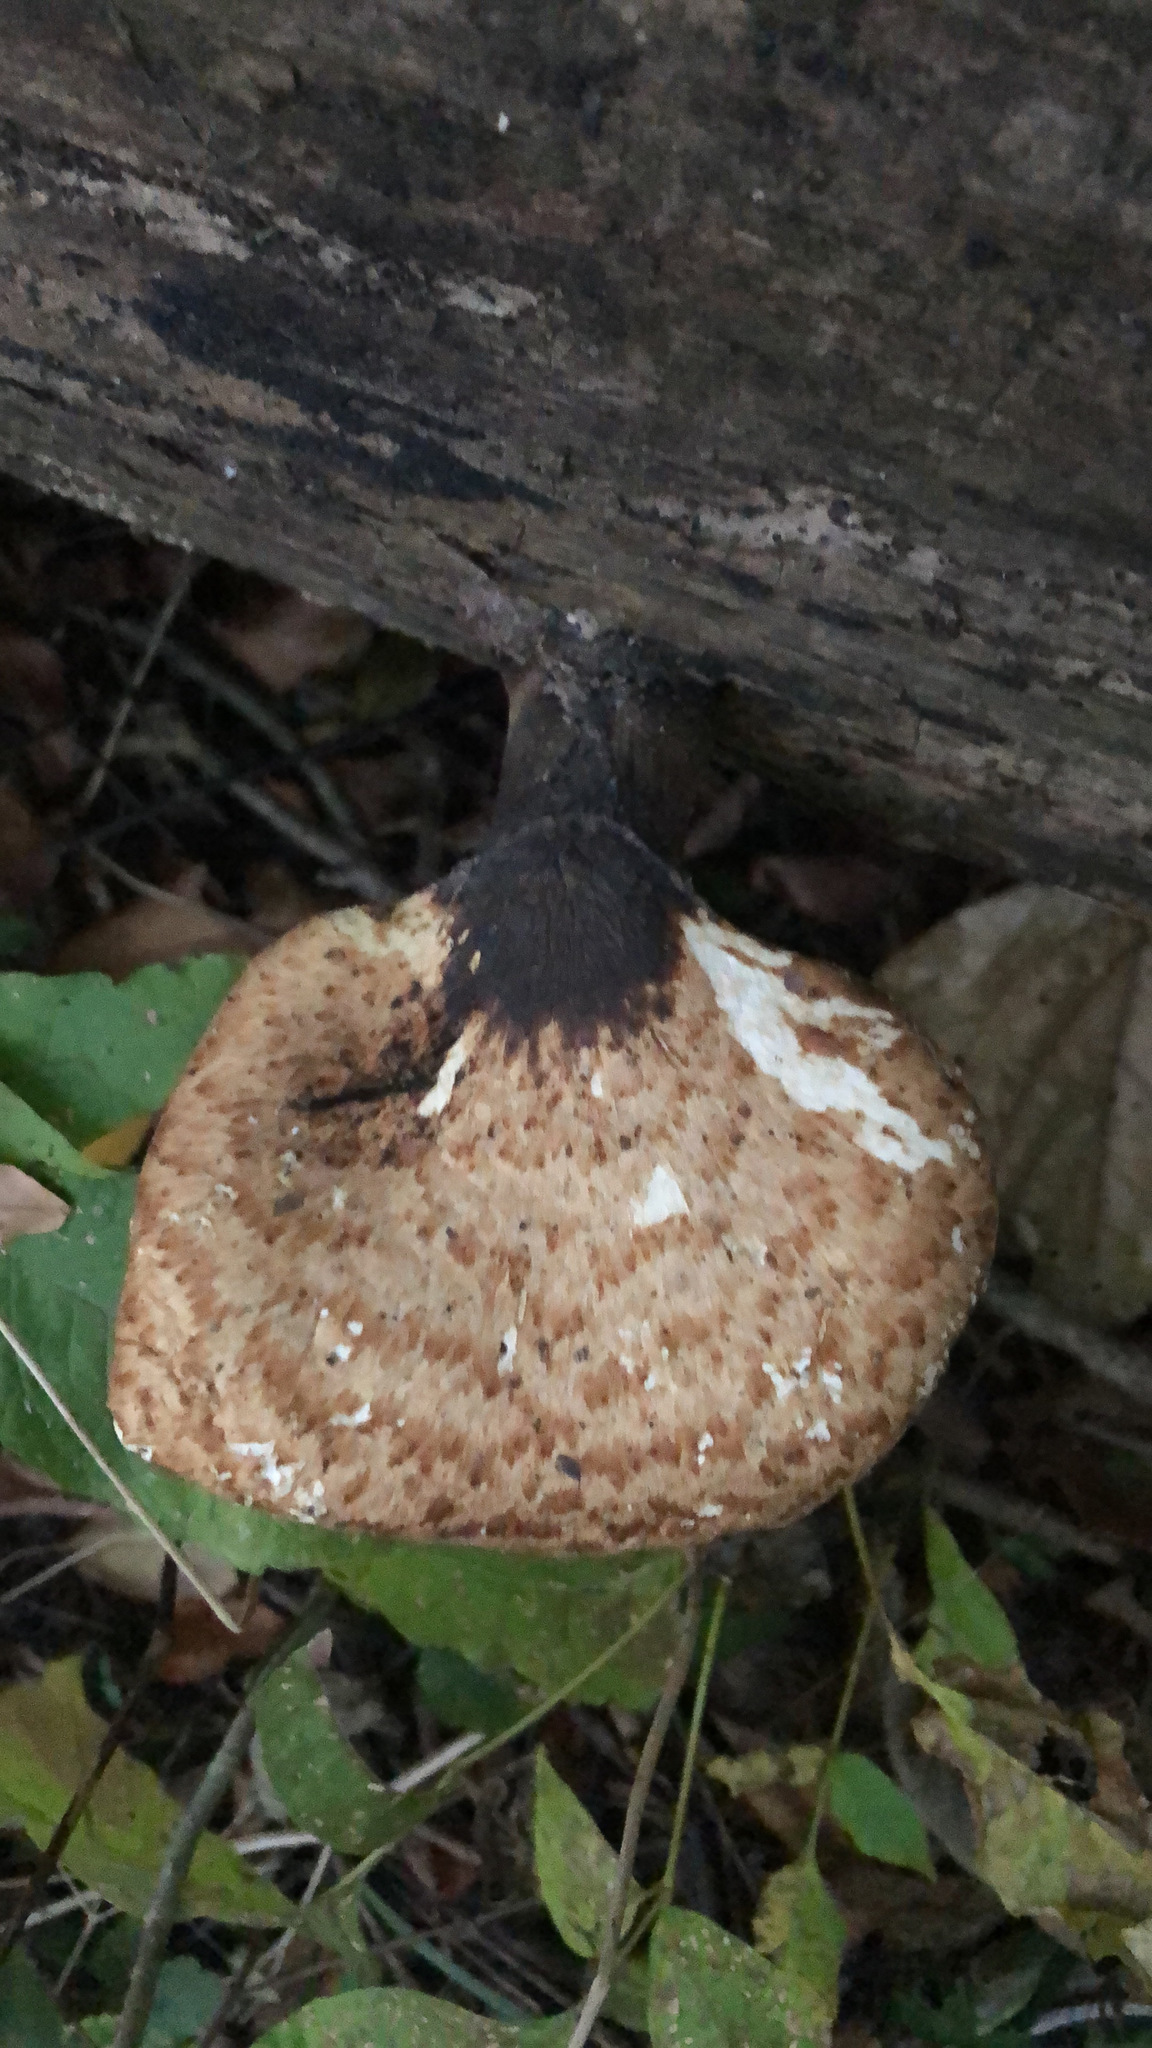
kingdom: Fungi
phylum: Basidiomycota
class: Agaricomycetes
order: Polyporales
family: Polyporaceae
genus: Cerioporus
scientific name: Cerioporus squamosus
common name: Dryad's saddle
